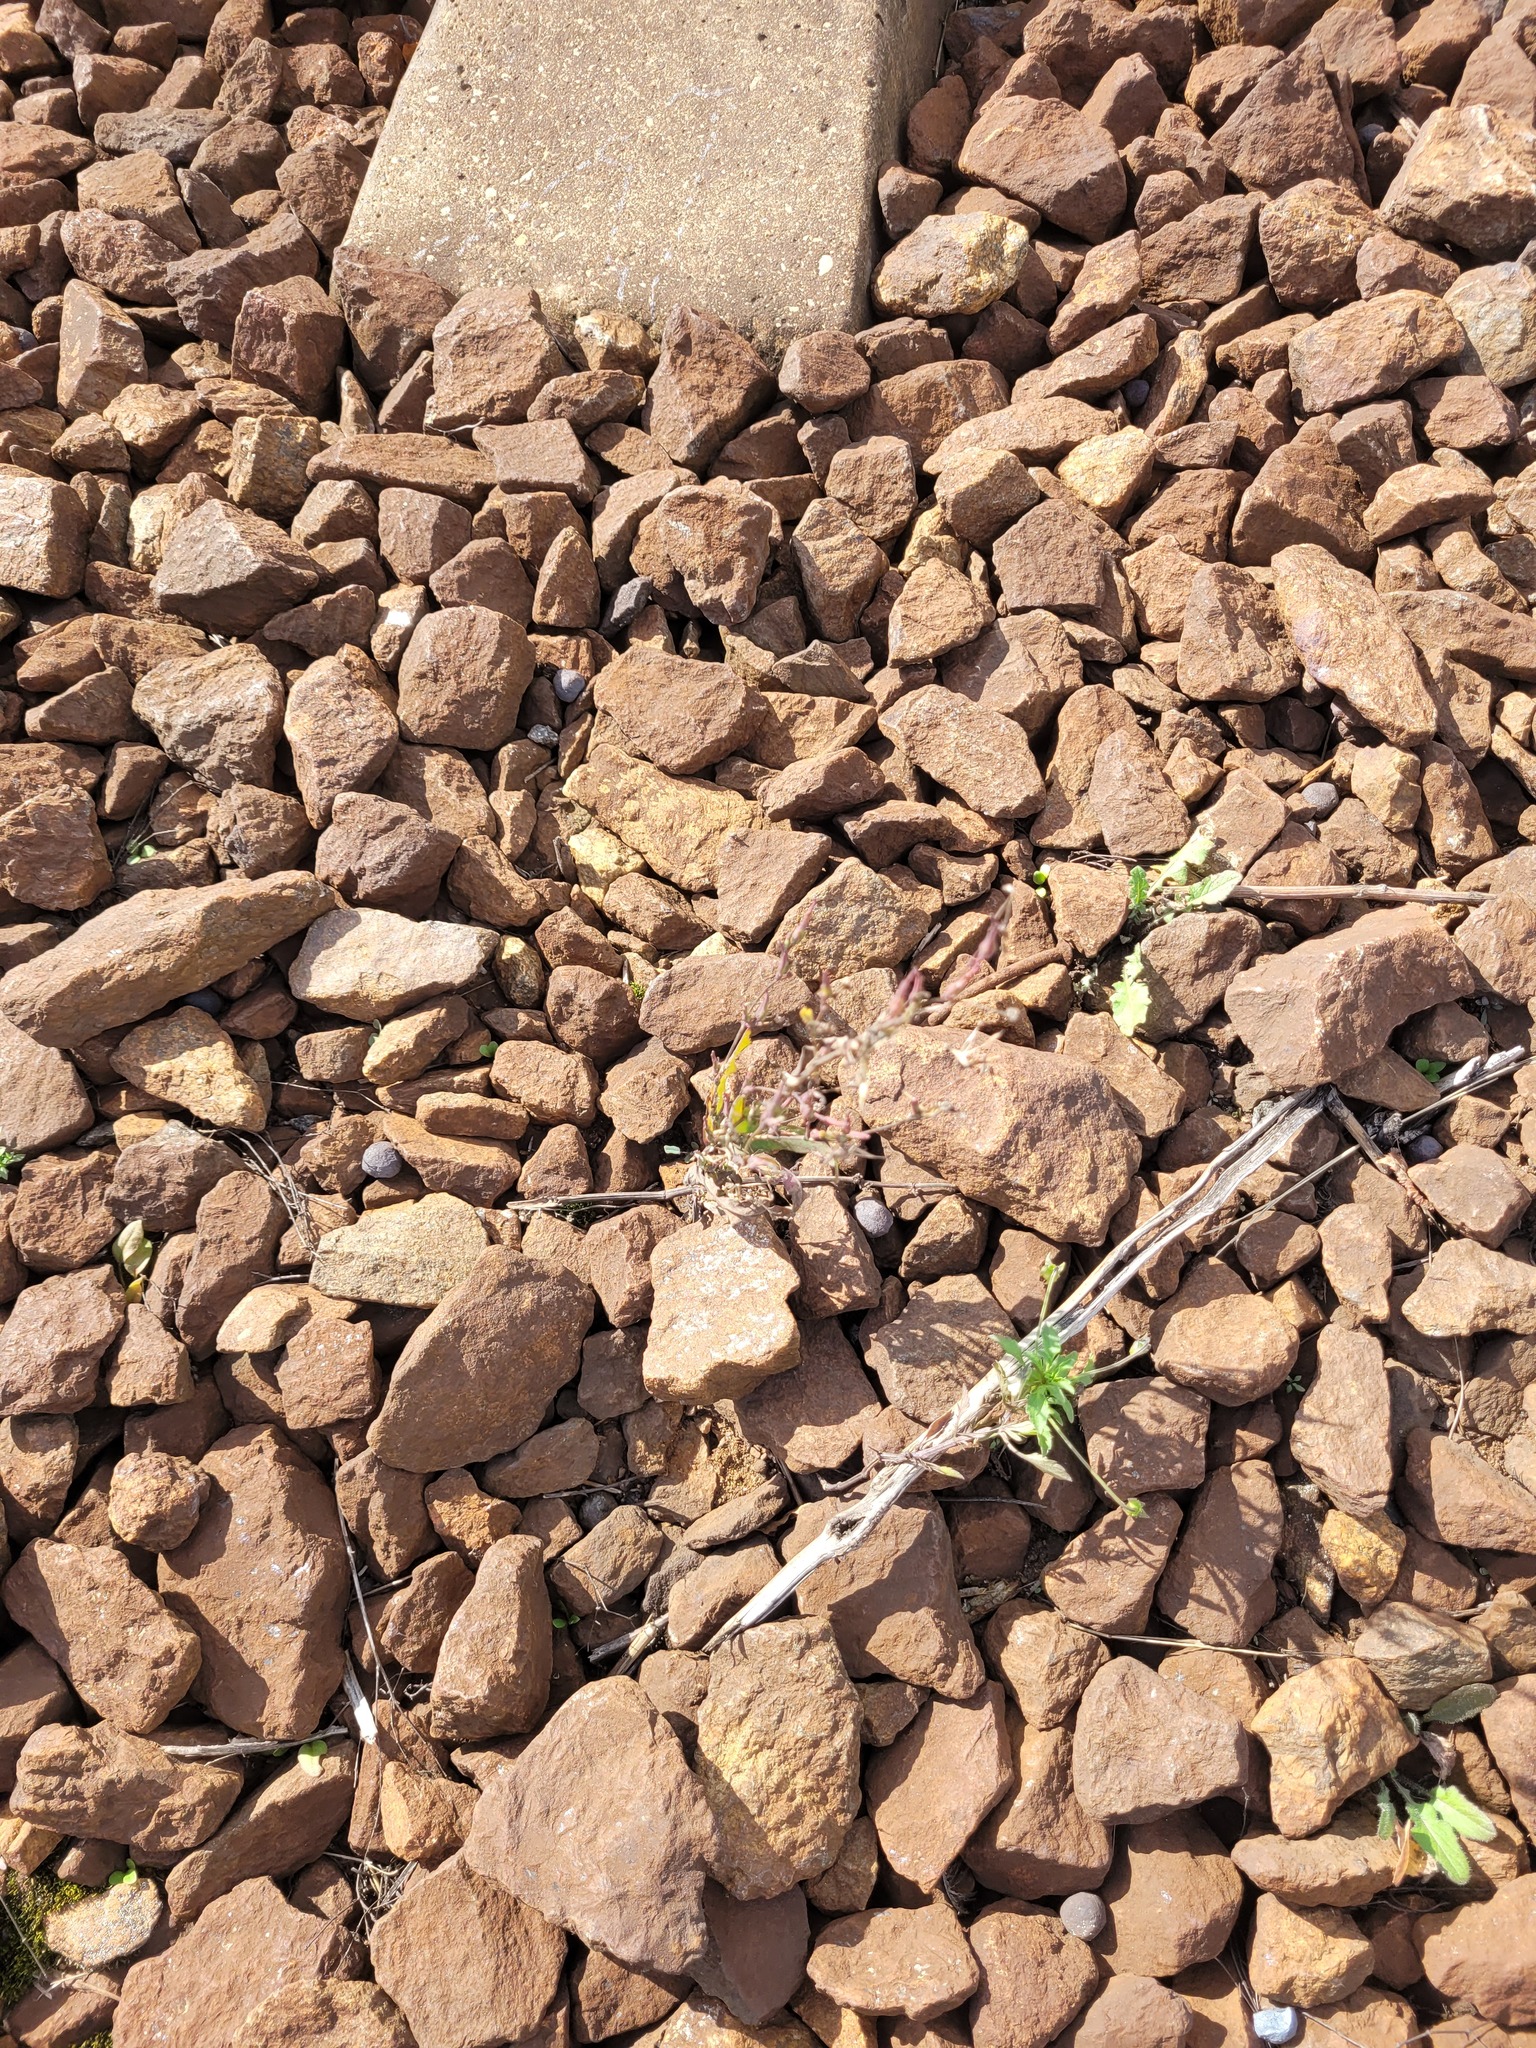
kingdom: Plantae
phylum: Tracheophyta
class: Magnoliopsida
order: Asterales
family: Asteraceae
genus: Lactuca
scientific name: Lactuca serriola
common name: Prickly lettuce
